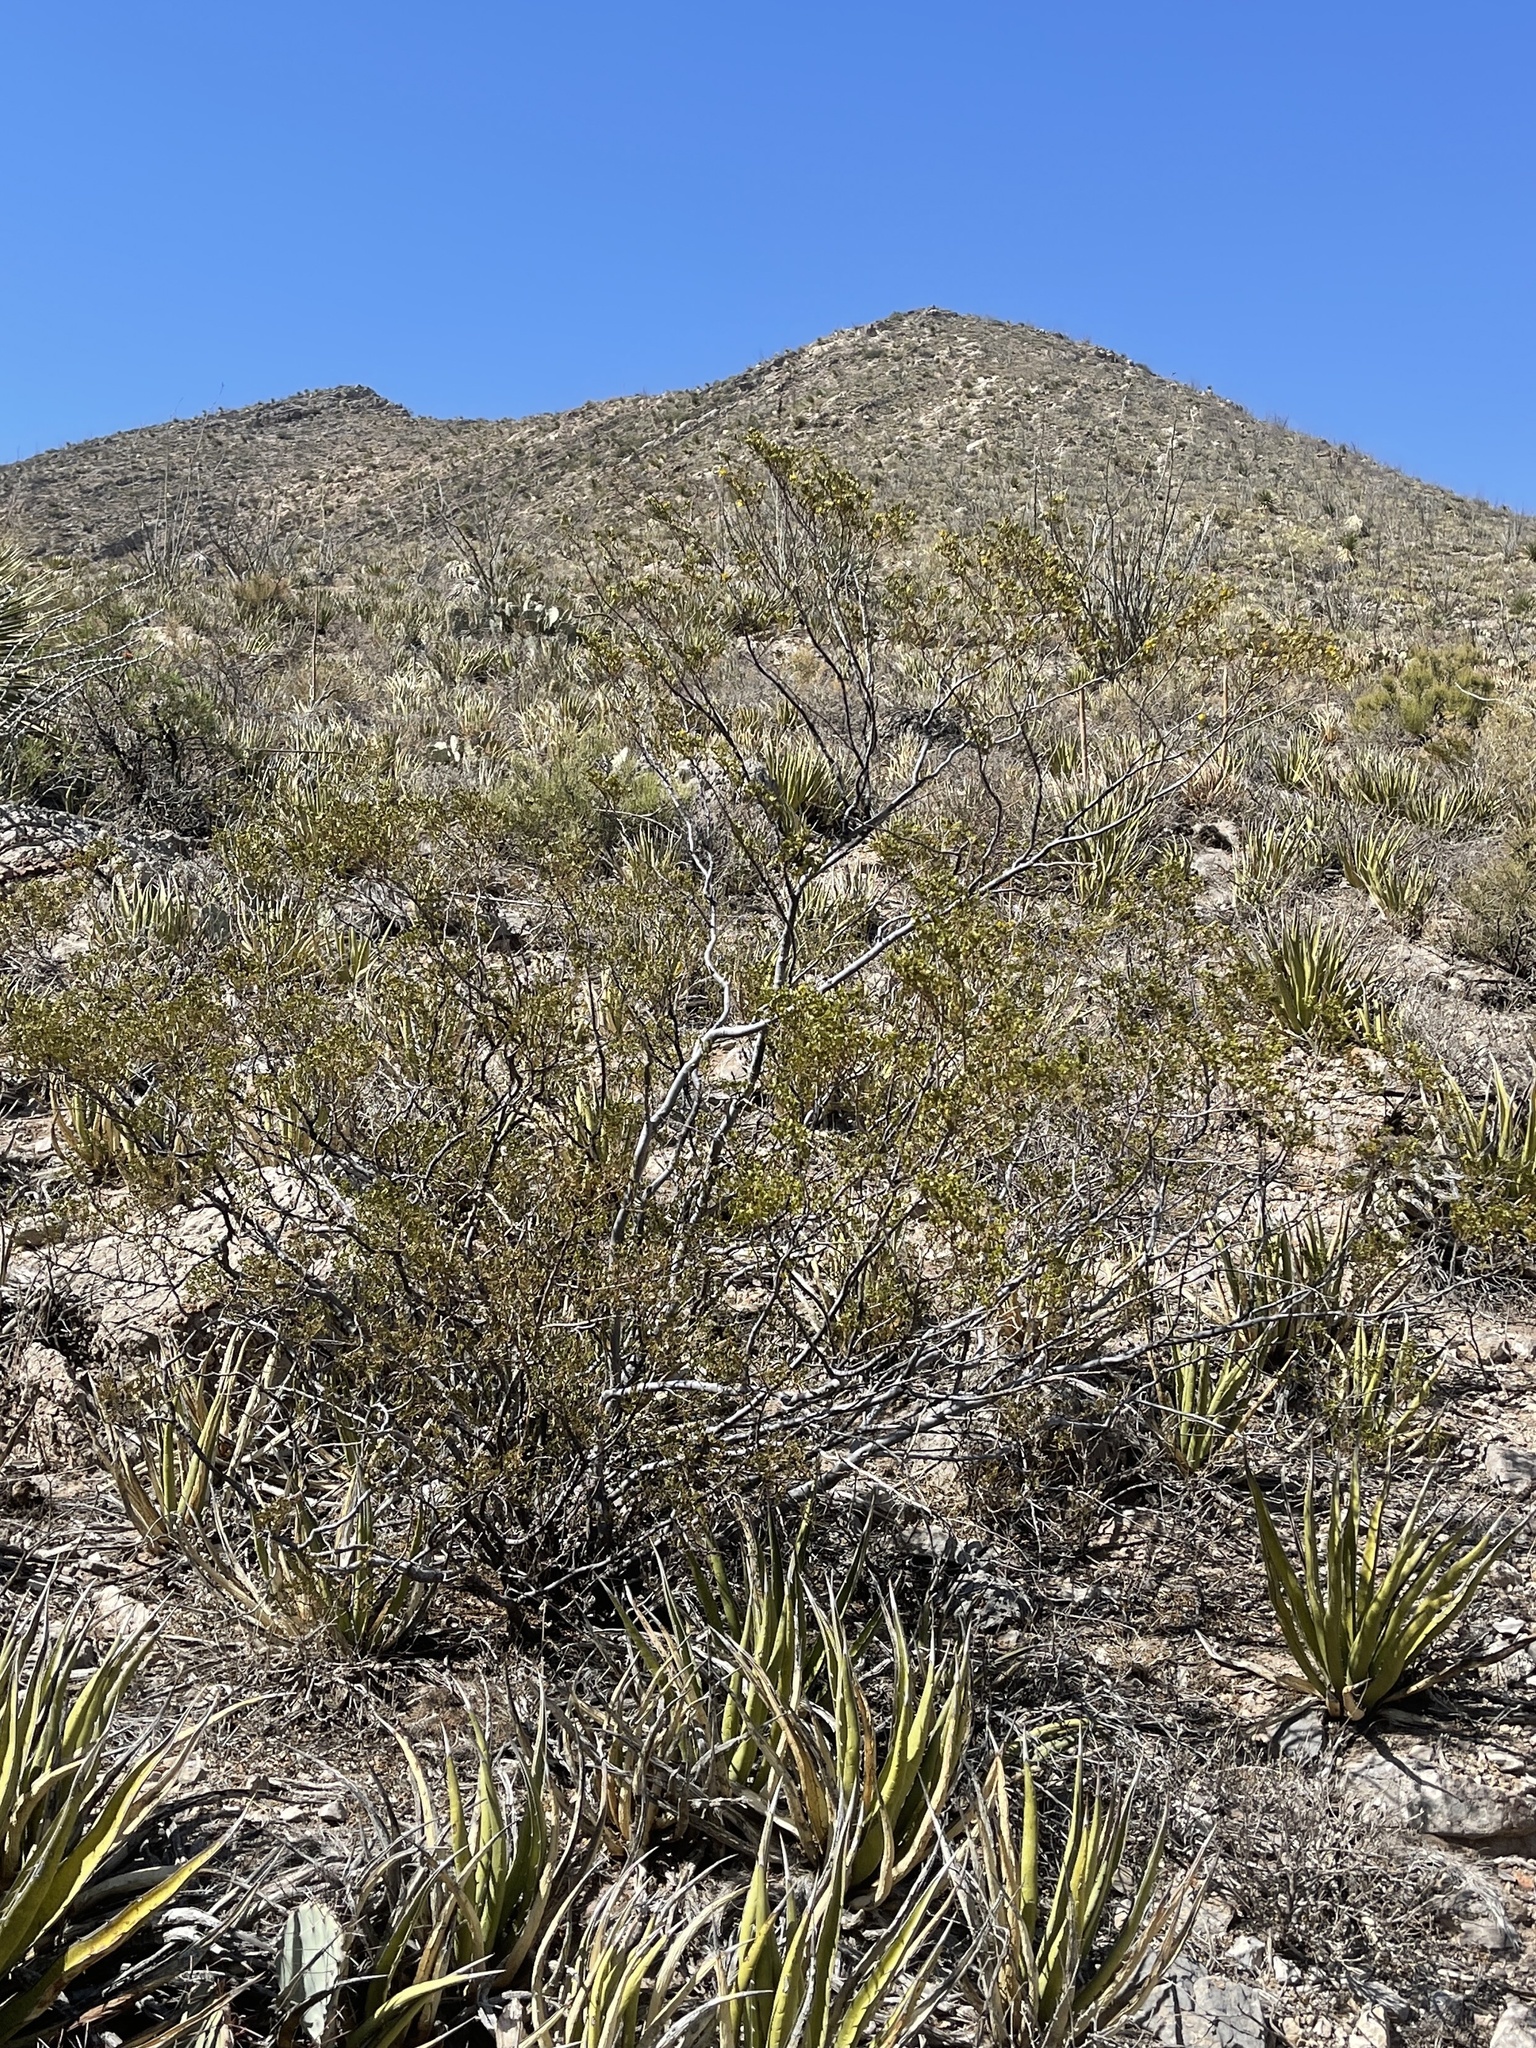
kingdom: Plantae
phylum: Tracheophyta
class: Magnoliopsida
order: Zygophyllales
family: Zygophyllaceae
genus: Larrea
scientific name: Larrea tridentata
